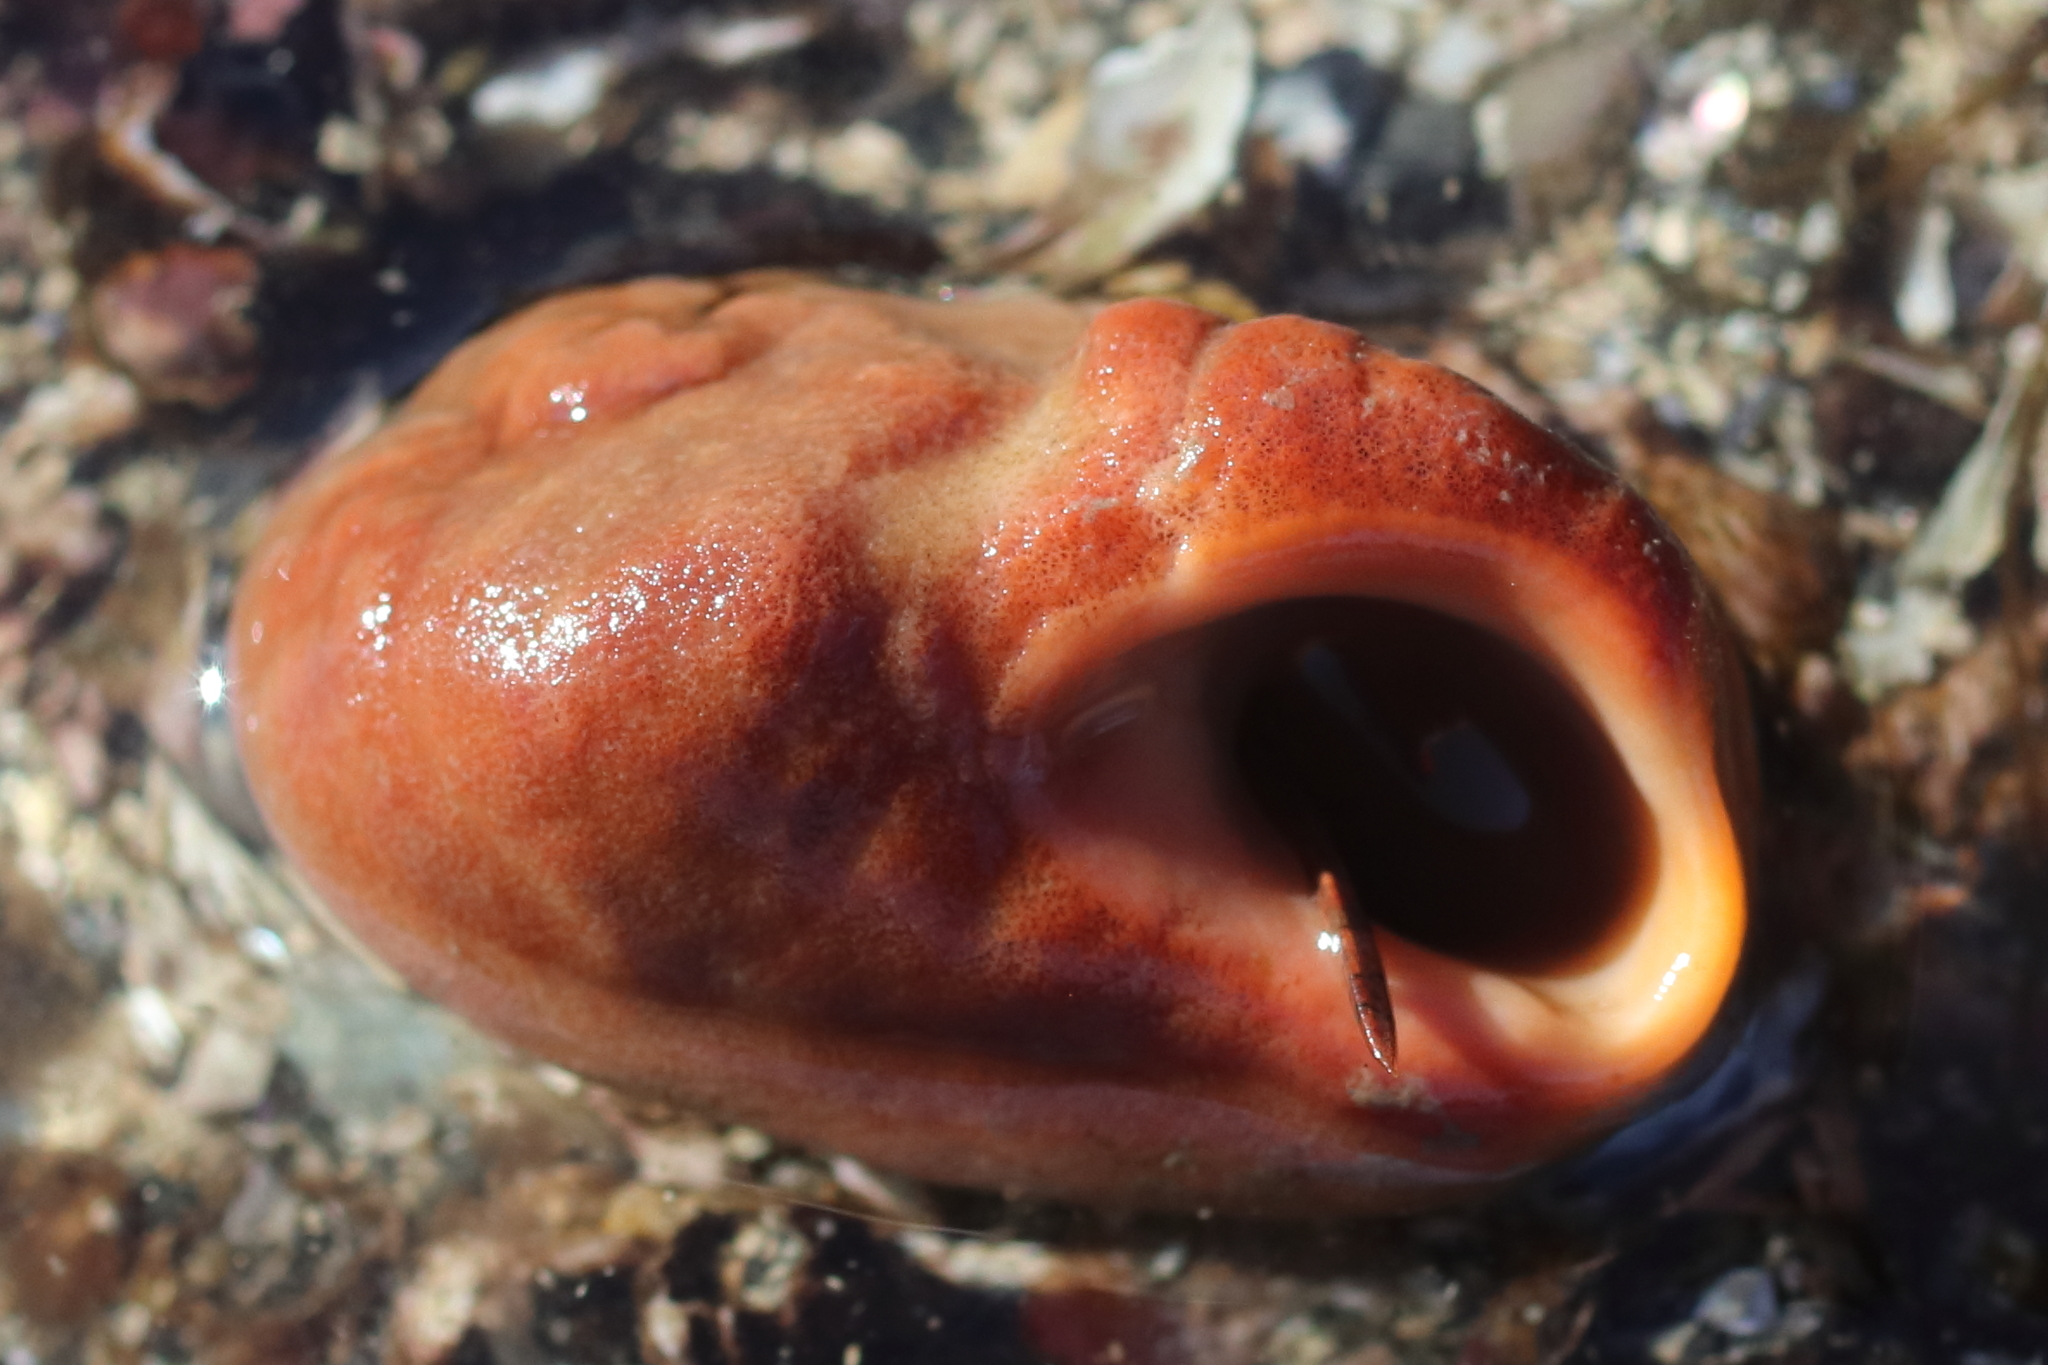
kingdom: Animalia
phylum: Porifera
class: Demospongiae
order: Suberitida
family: Suberitidae
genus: Suberites
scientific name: Suberites latus
